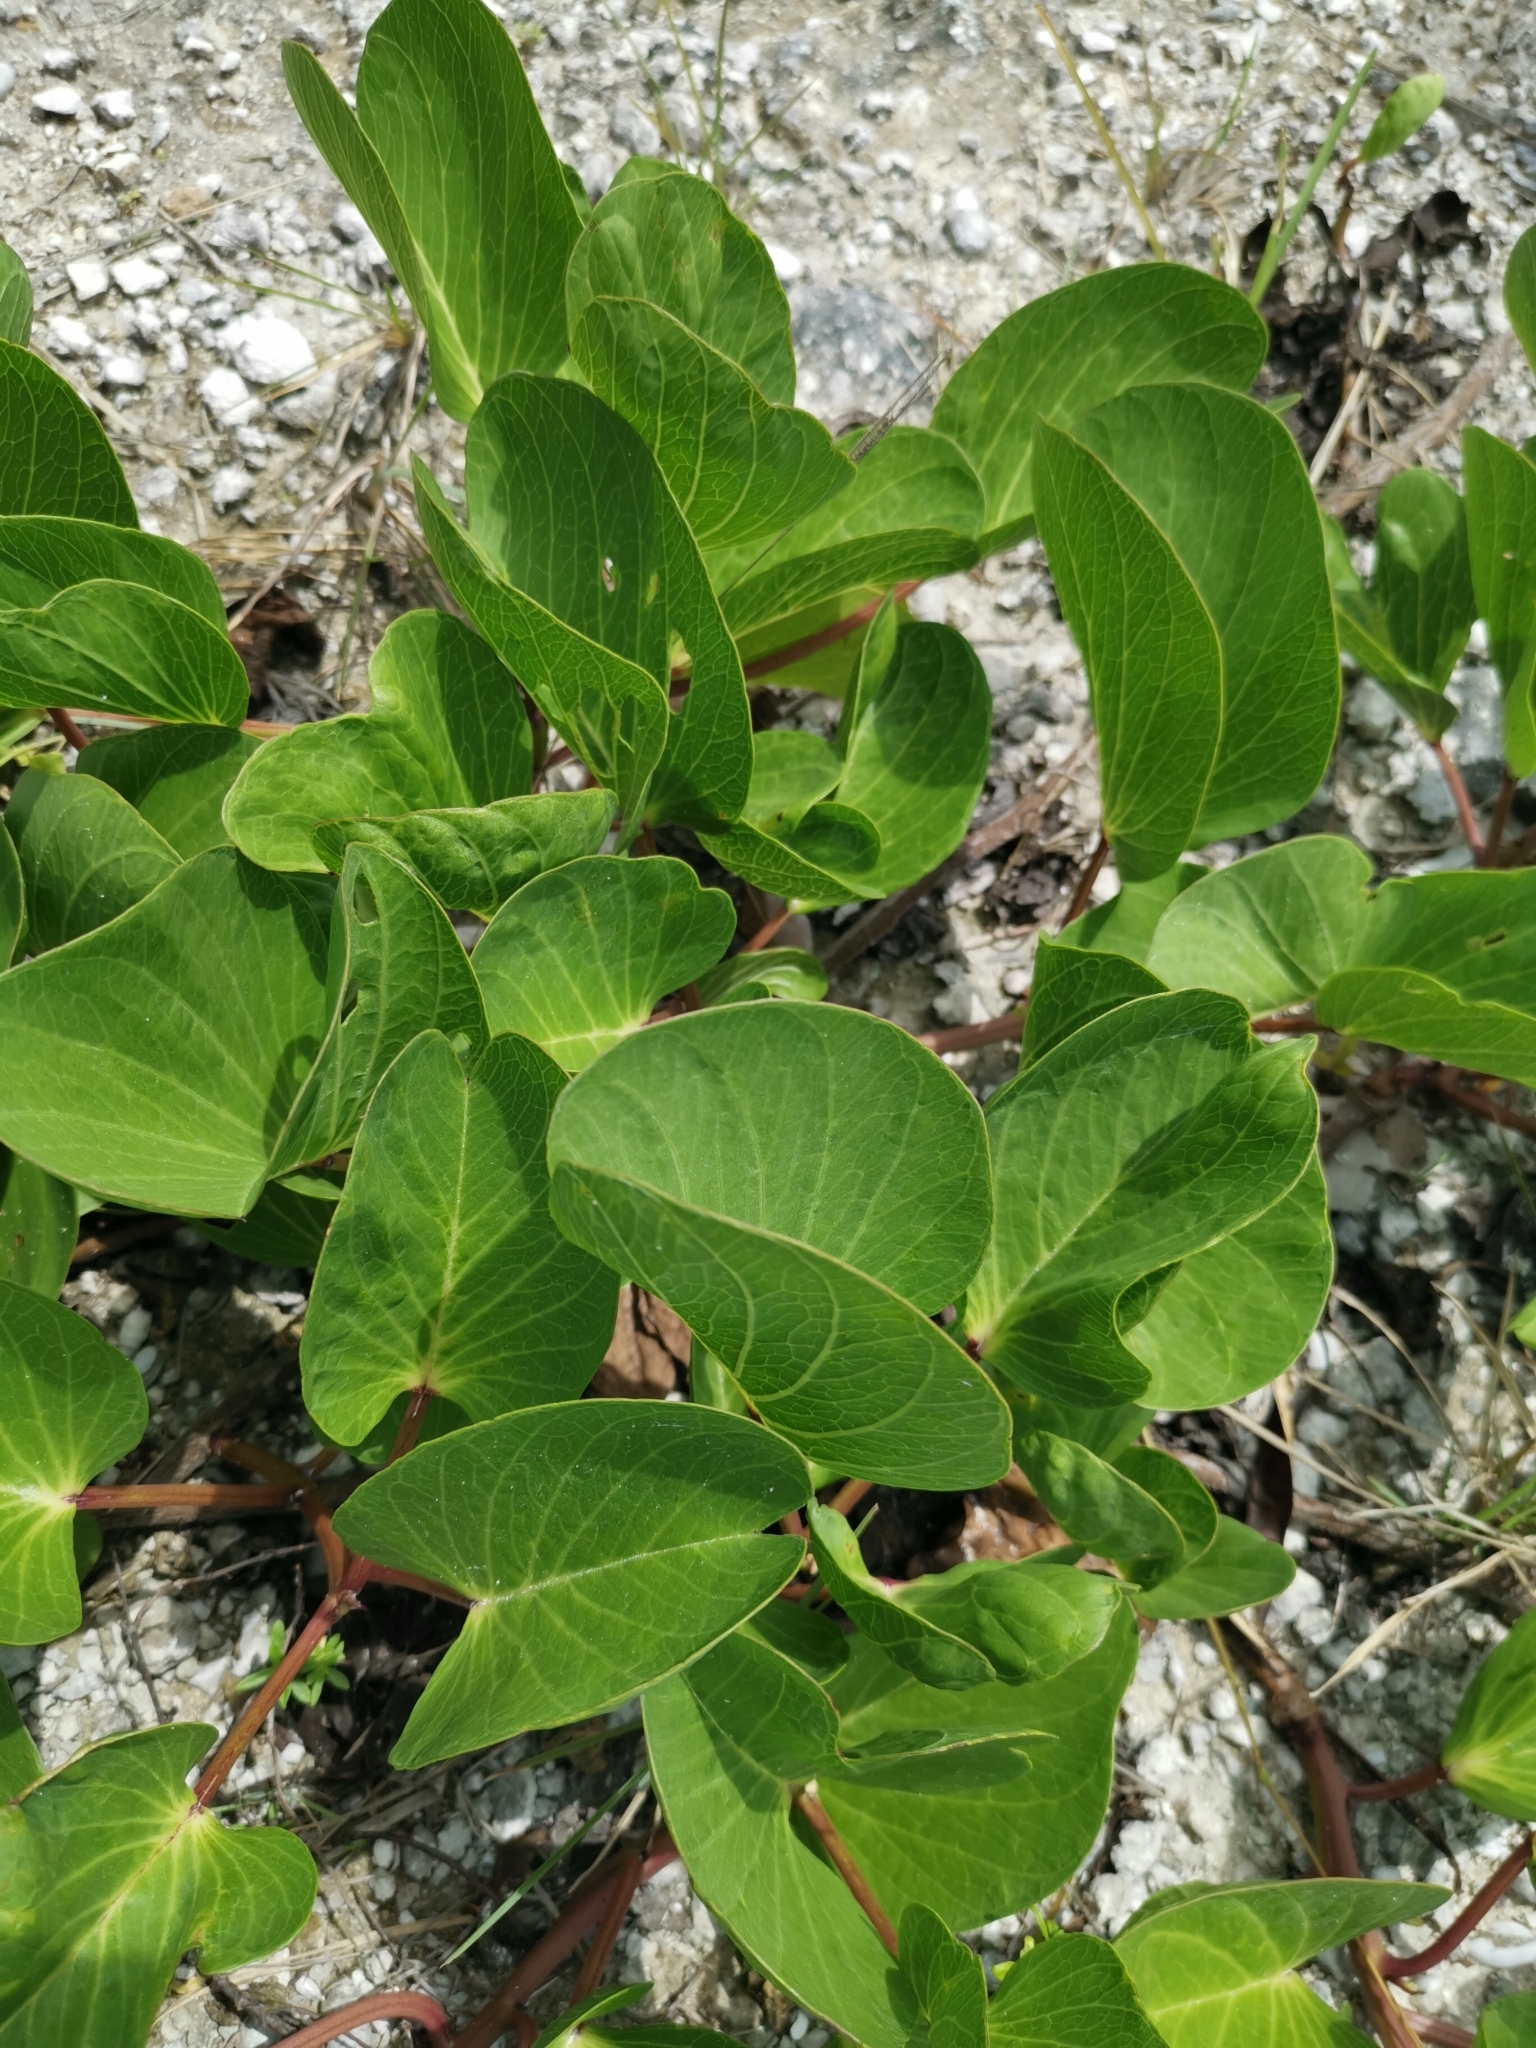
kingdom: Plantae
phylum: Tracheophyta
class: Magnoliopsida
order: Solanales
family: Convolvulaceae
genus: Ipomoea
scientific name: Ipomoea pes-caprae
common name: Beach morning glory
